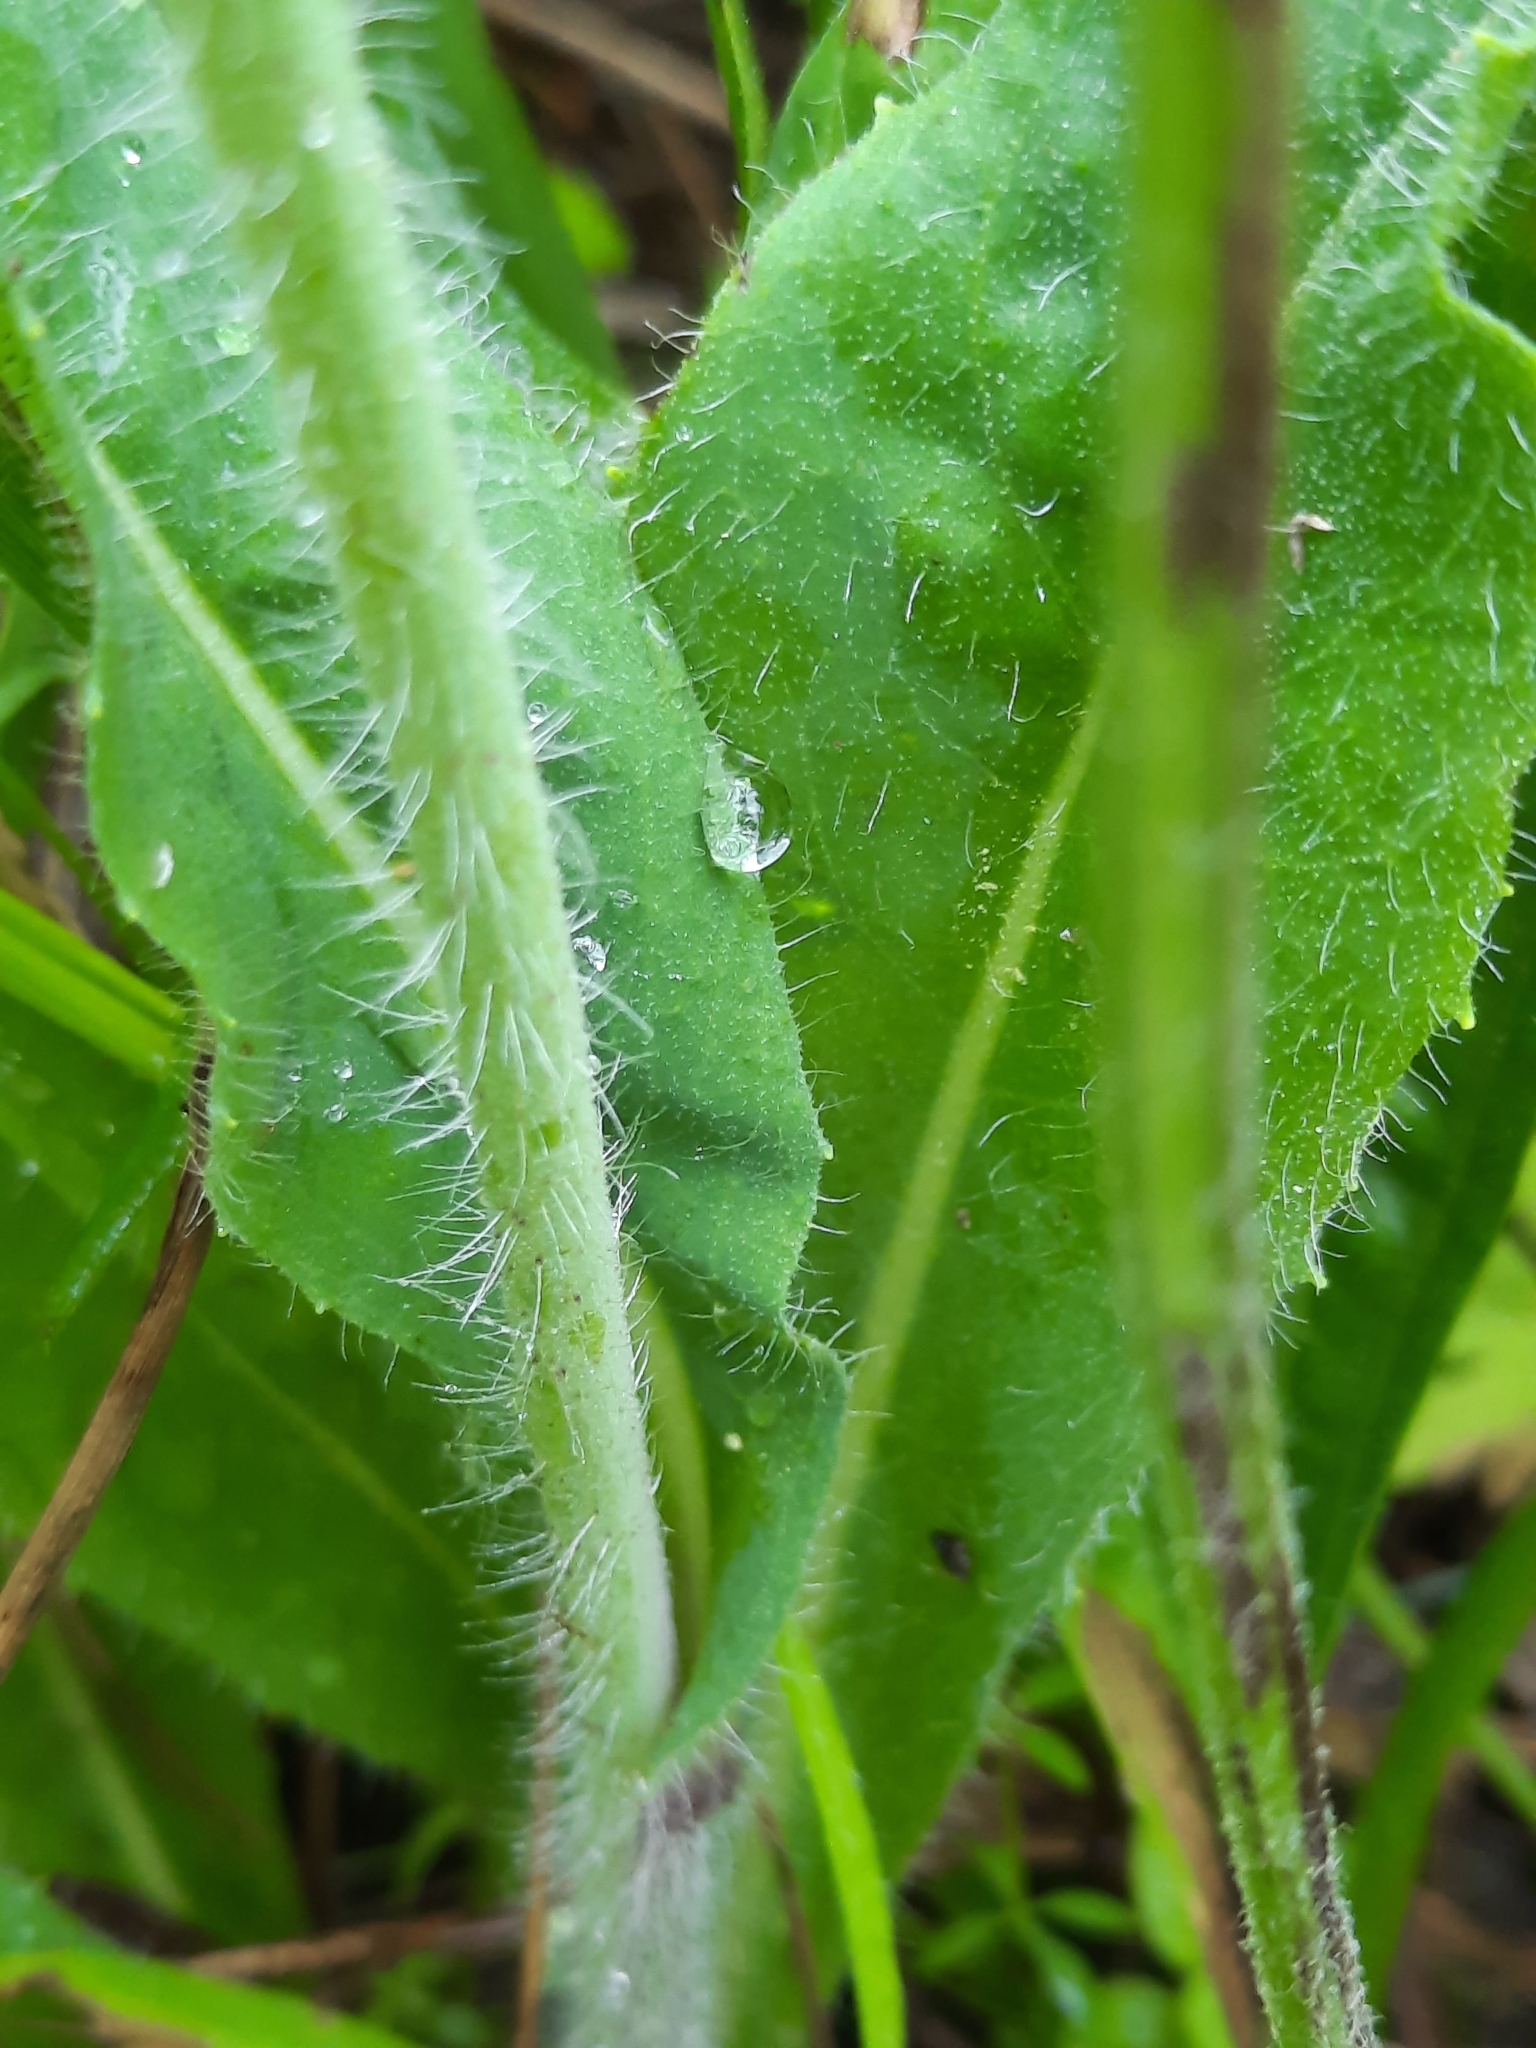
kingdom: Plantae
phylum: Tracheophyta
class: Magnoliopsida
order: Asterales
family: Asteraceae
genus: Pilosella
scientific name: Pilosella caespitosa
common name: Yellow fox-and-cubs
